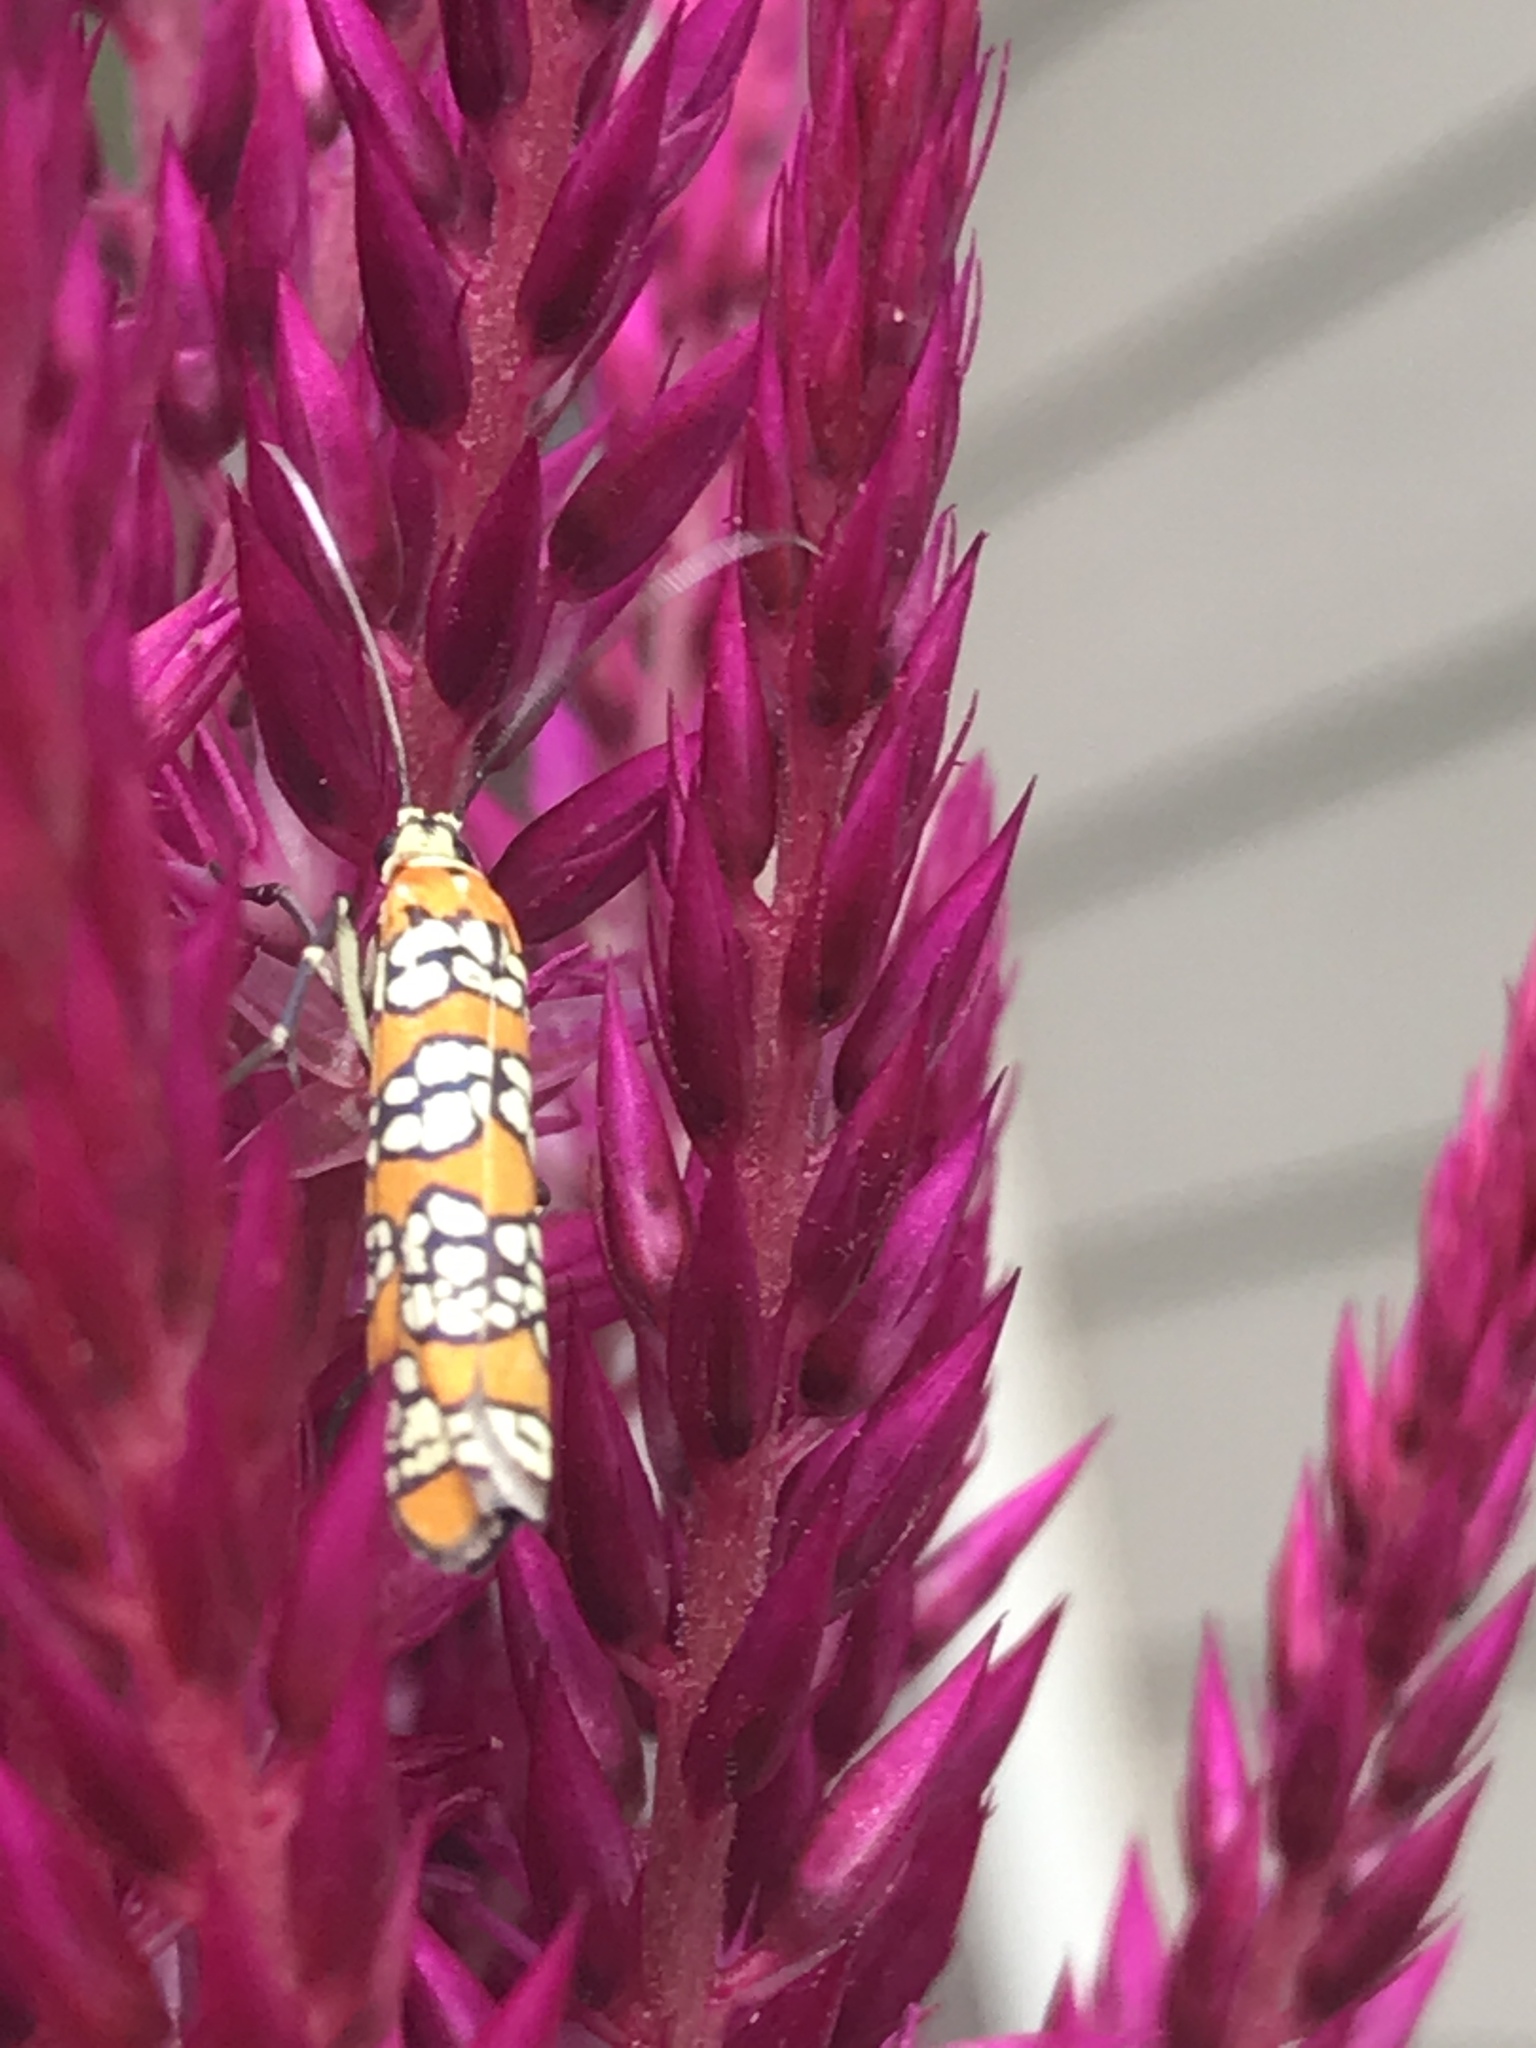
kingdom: Animalia
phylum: Arthropoda
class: Insecta
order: Lepidoptera
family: Attevidae
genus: Atteva
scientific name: Atteva punctella
